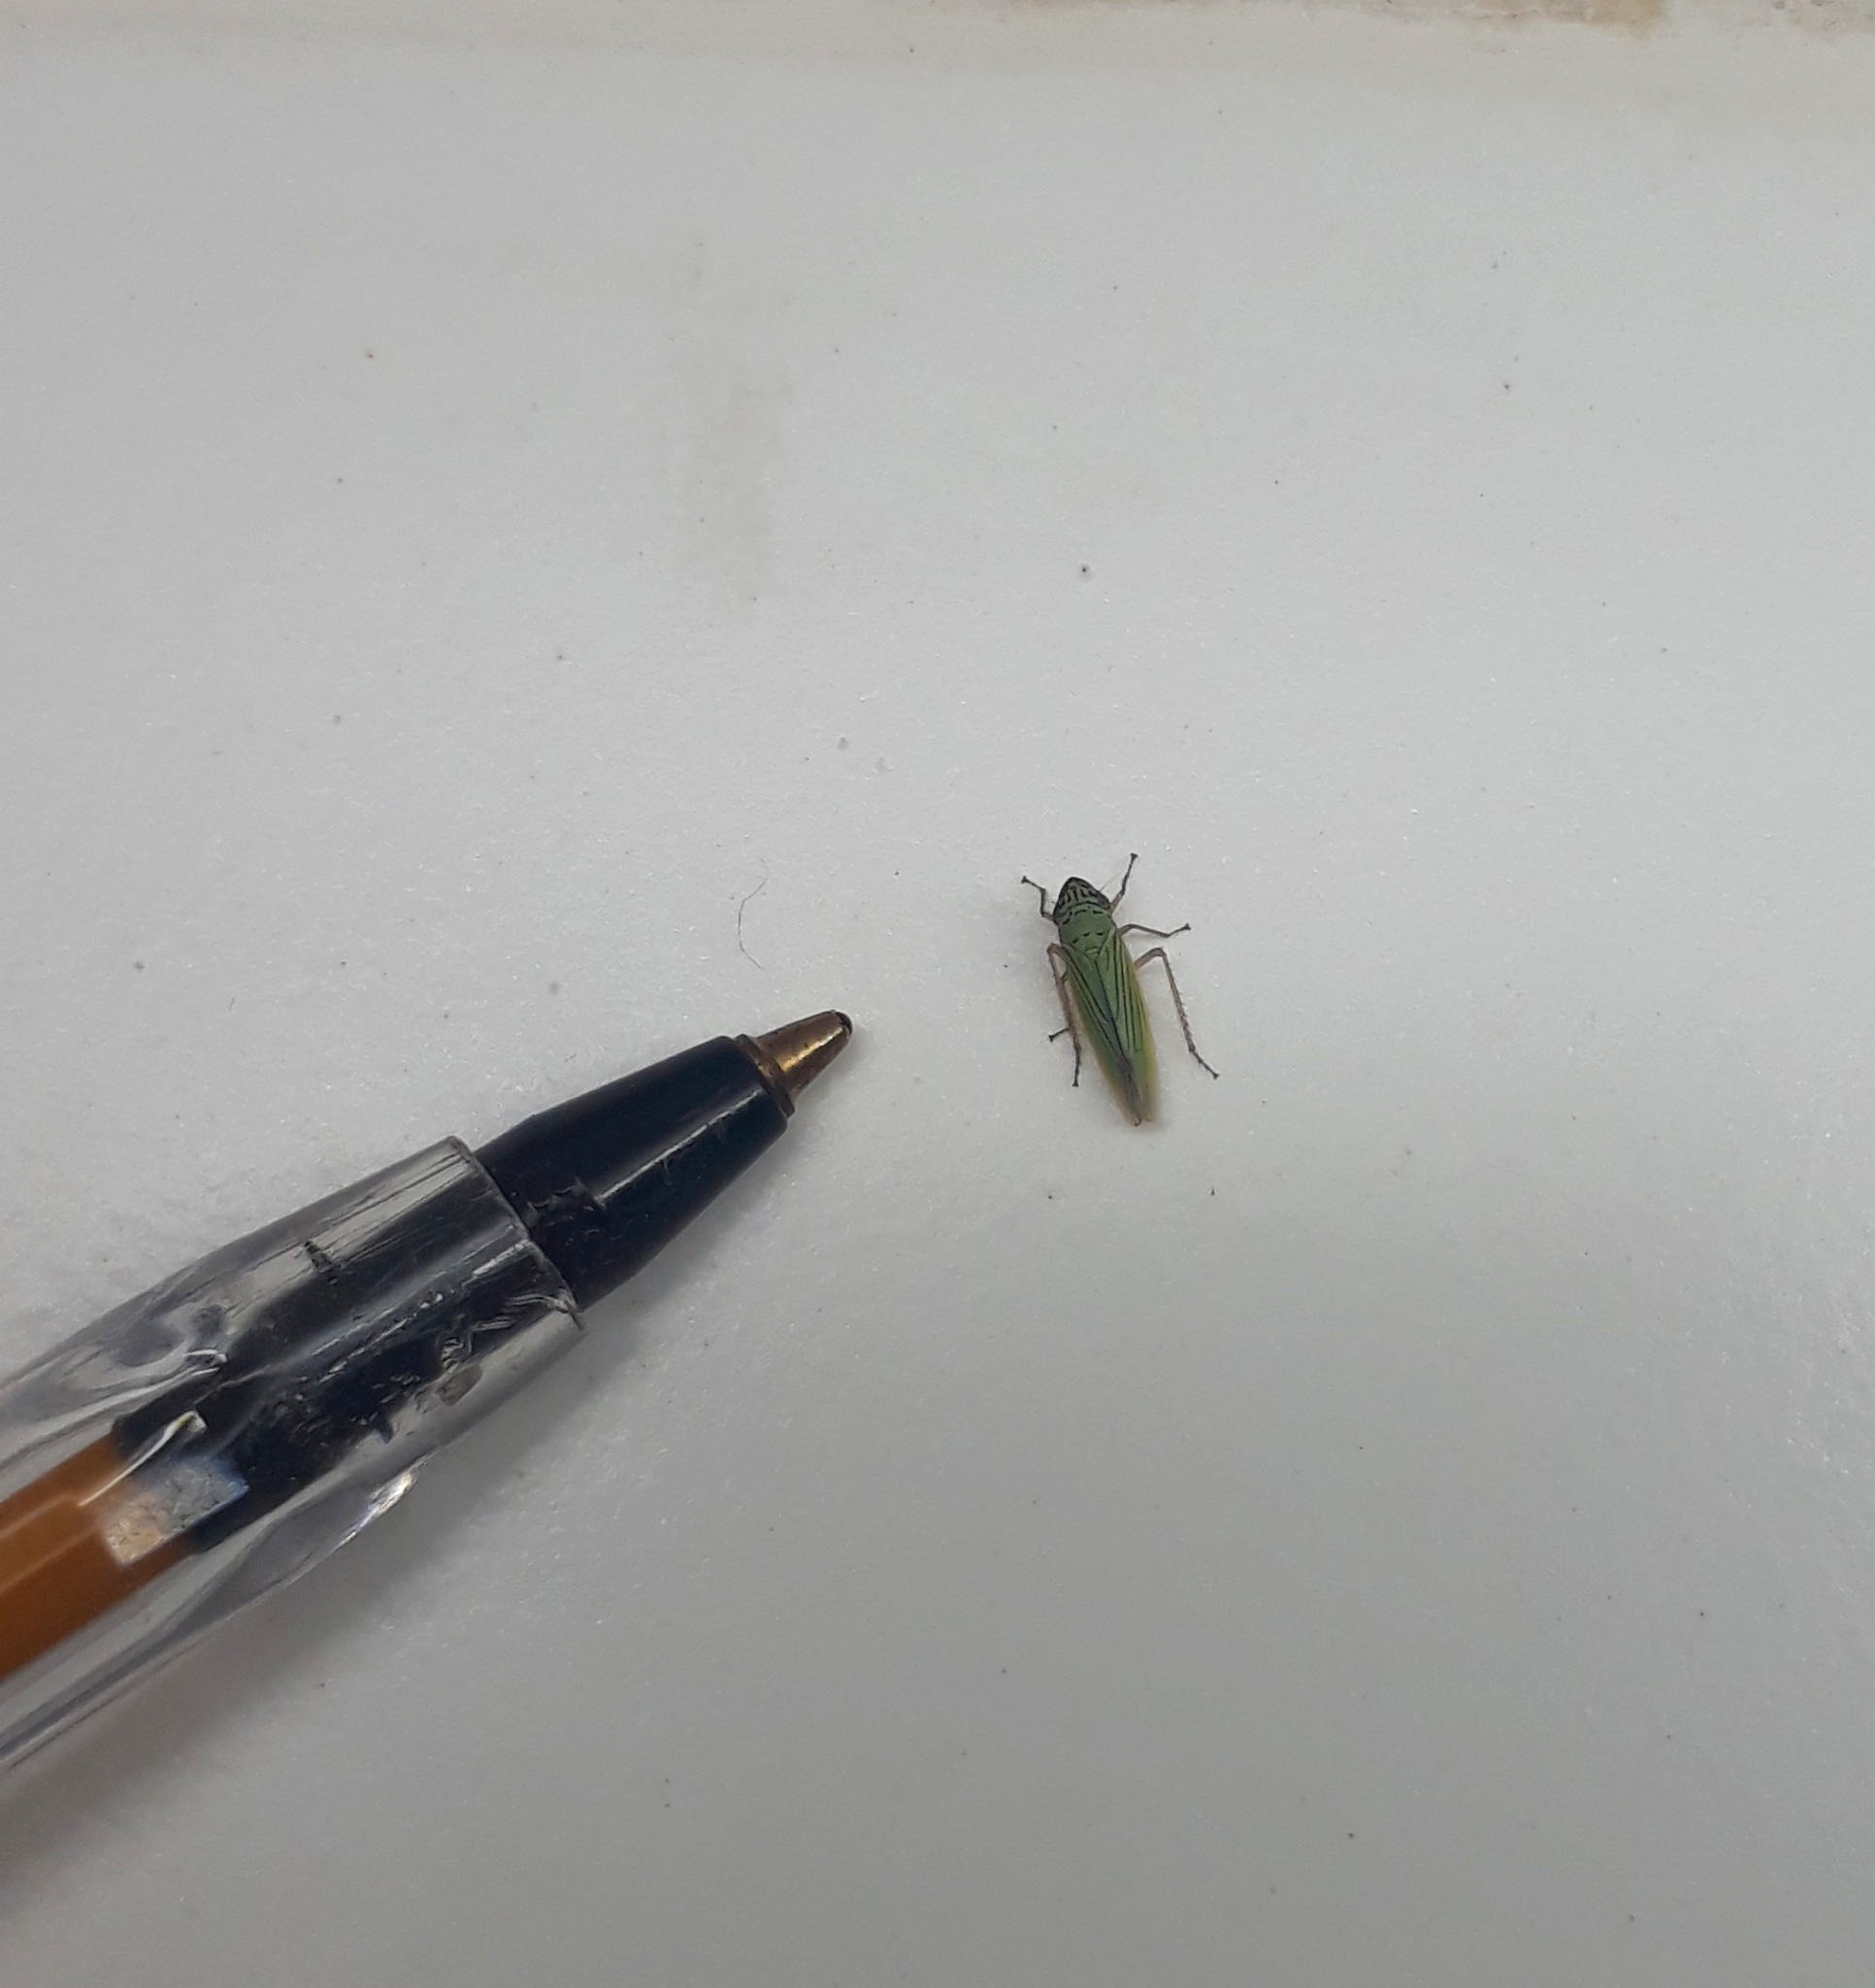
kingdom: Animalia
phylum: Arthropoda
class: Insecta
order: Hemiptera
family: Cicadellidae
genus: Syncharina
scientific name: Syncharina argentina
